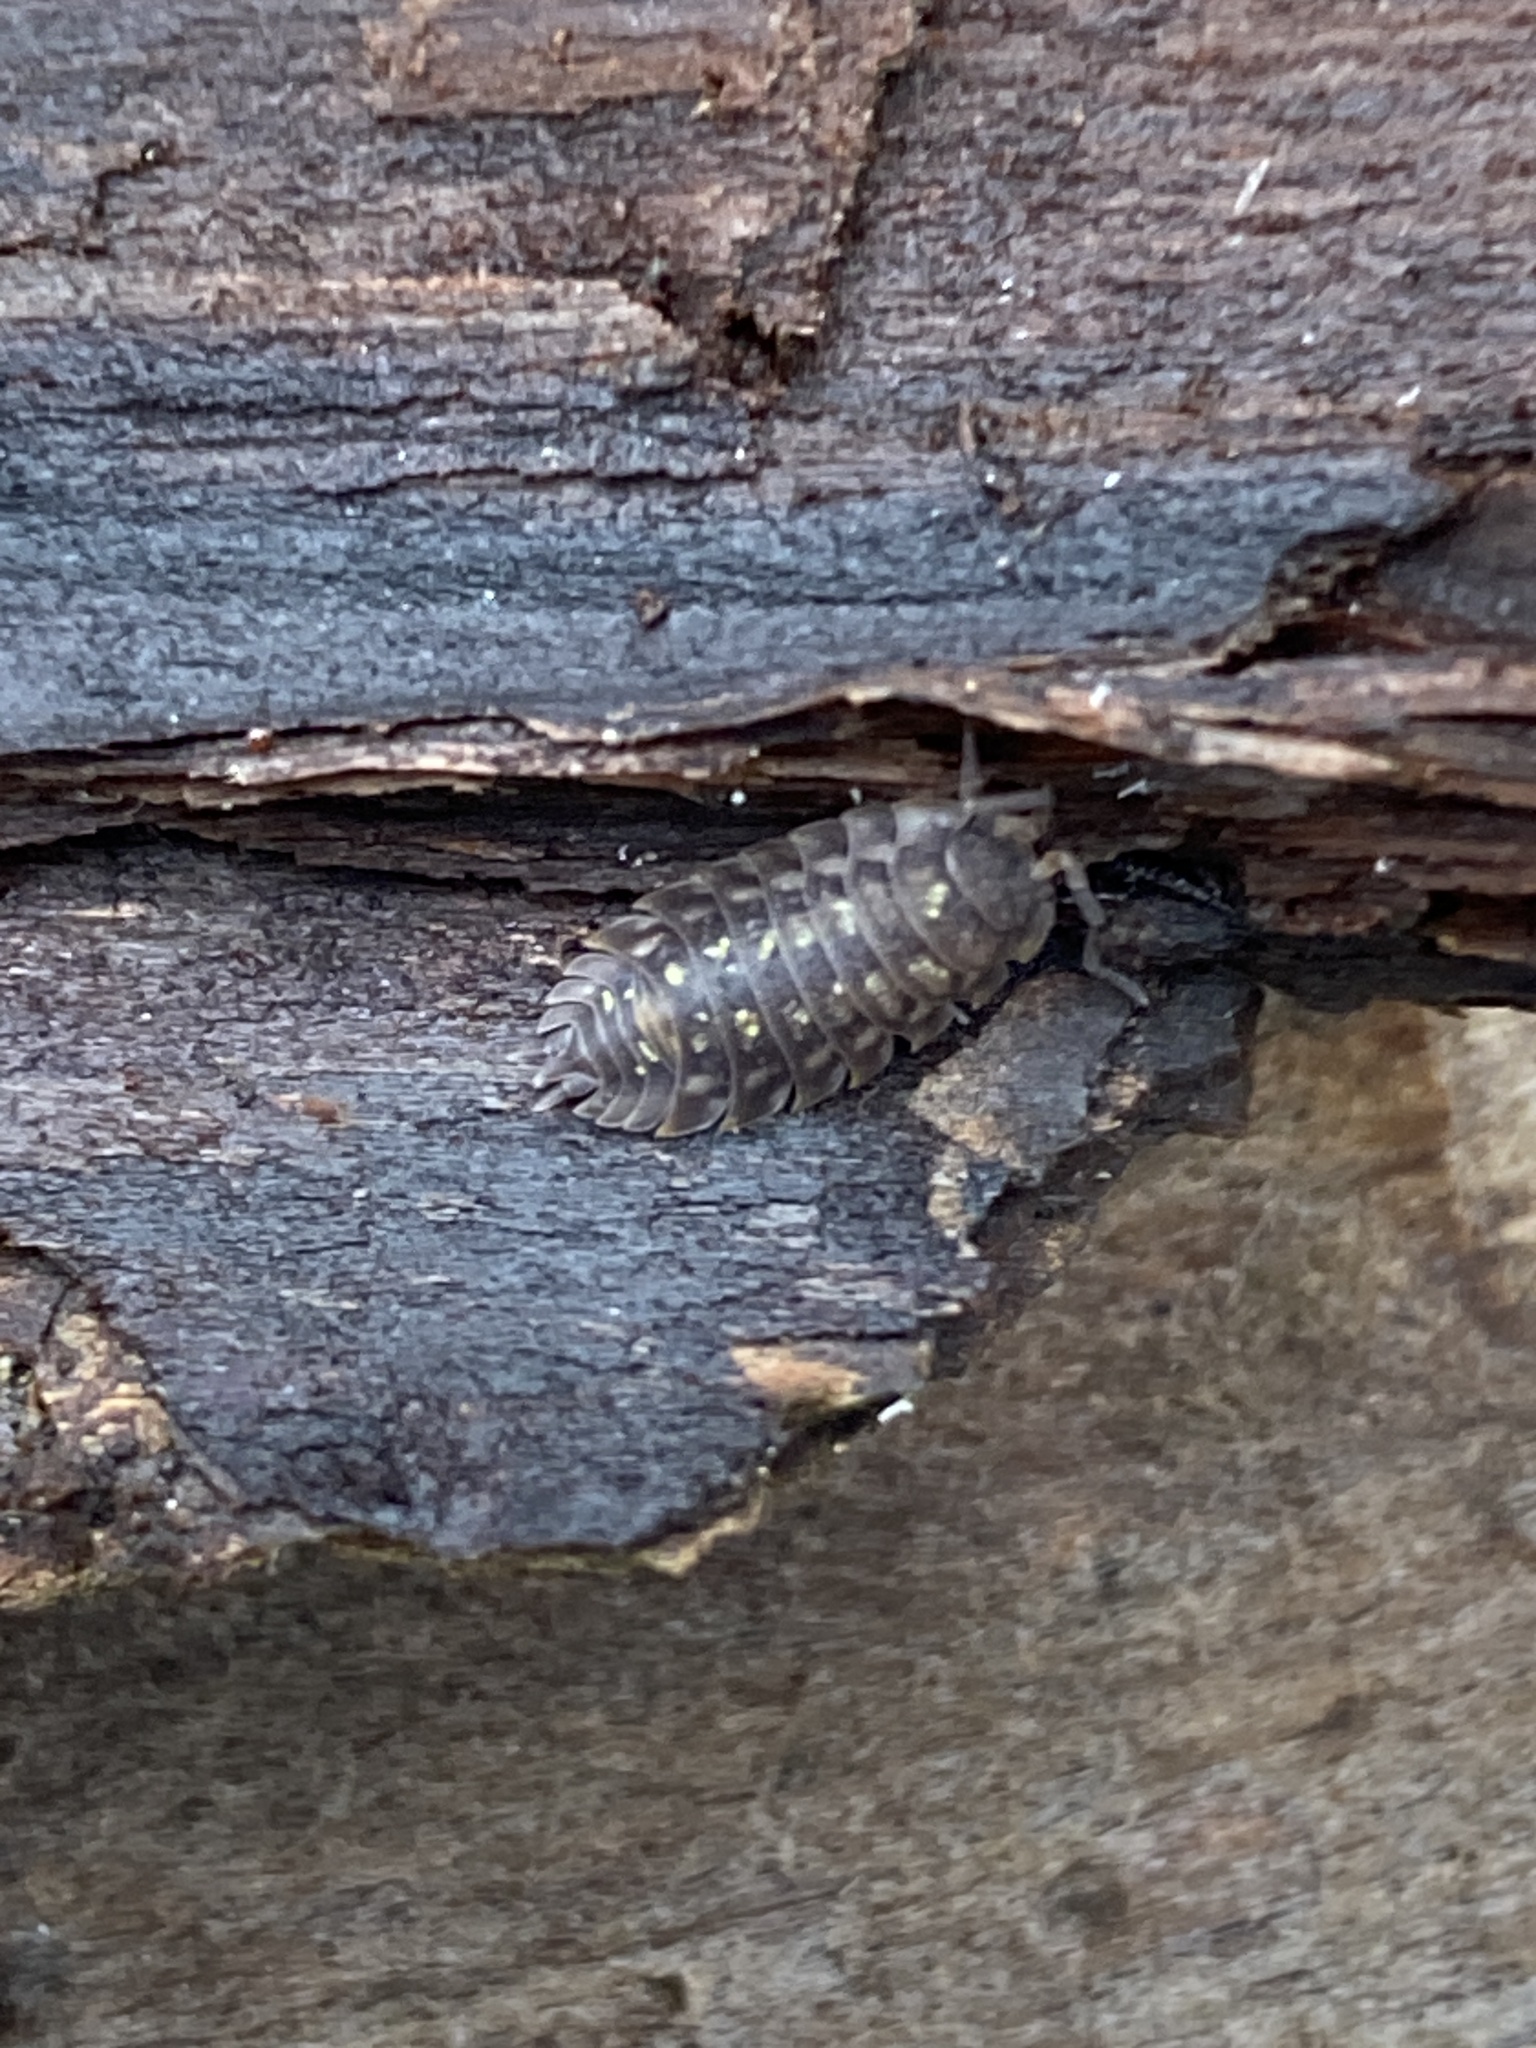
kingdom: Animalia
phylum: Arthropoda
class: Malacostraca
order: Isopoda
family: Oniscidae
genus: Oniscus
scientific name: Oniscus asellus
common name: Common shiny woodlouse
